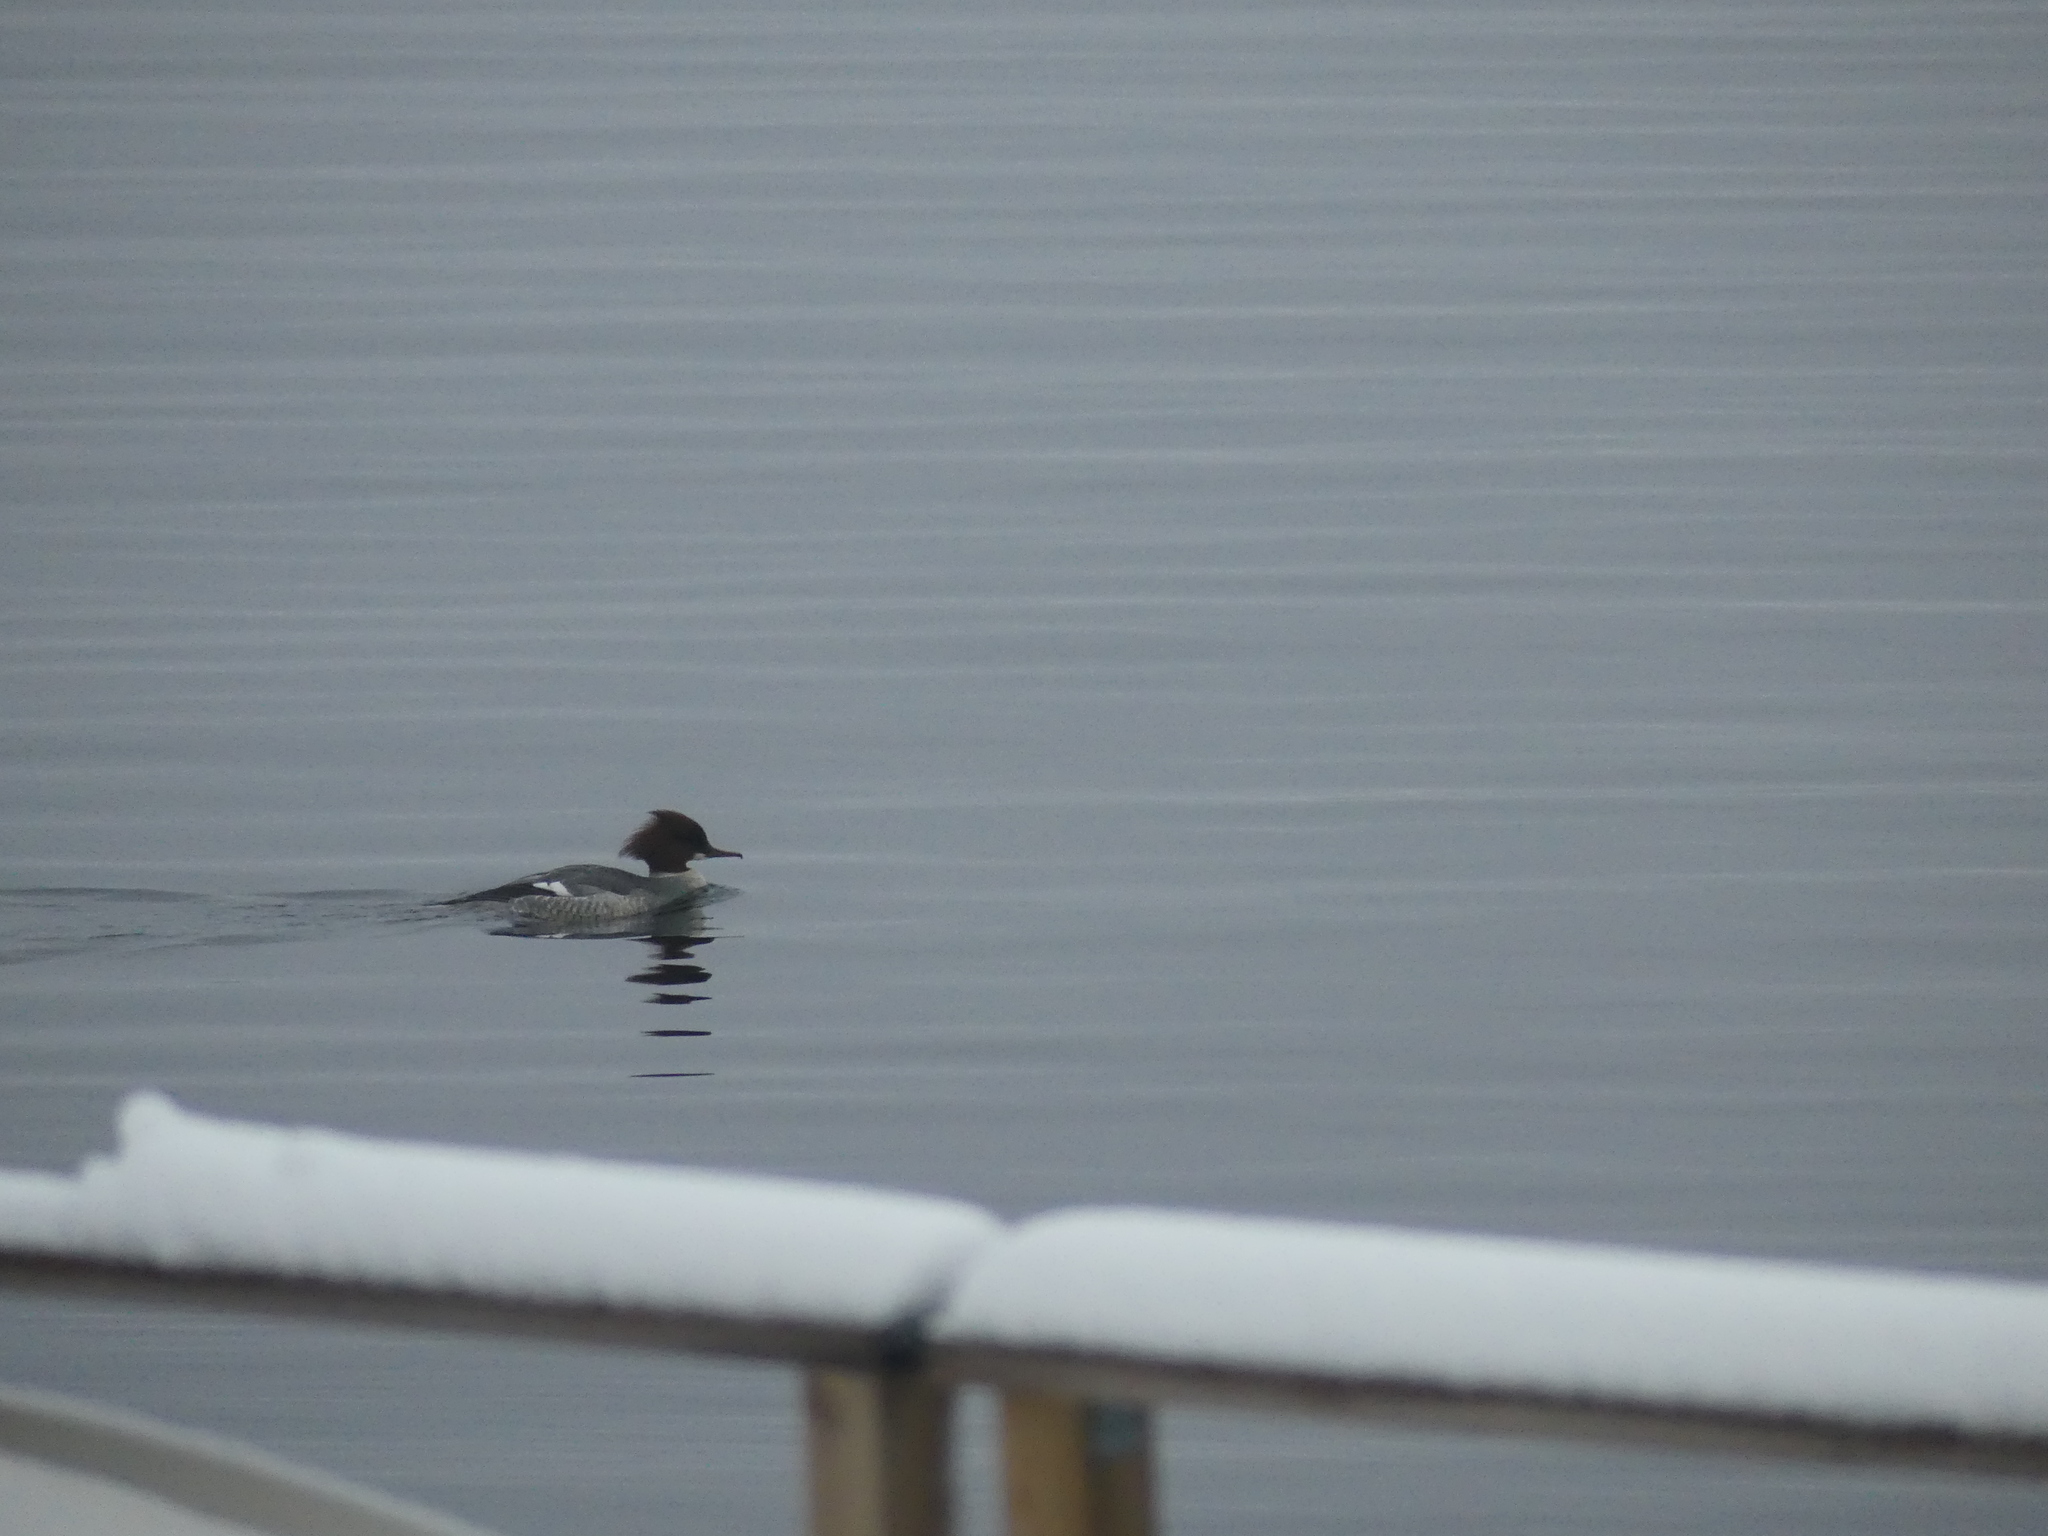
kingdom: Animalia
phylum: Chordata
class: Aves
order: Anseriformes
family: Anatidae
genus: Mergus
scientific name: Mergus merganser
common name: Common merganser
